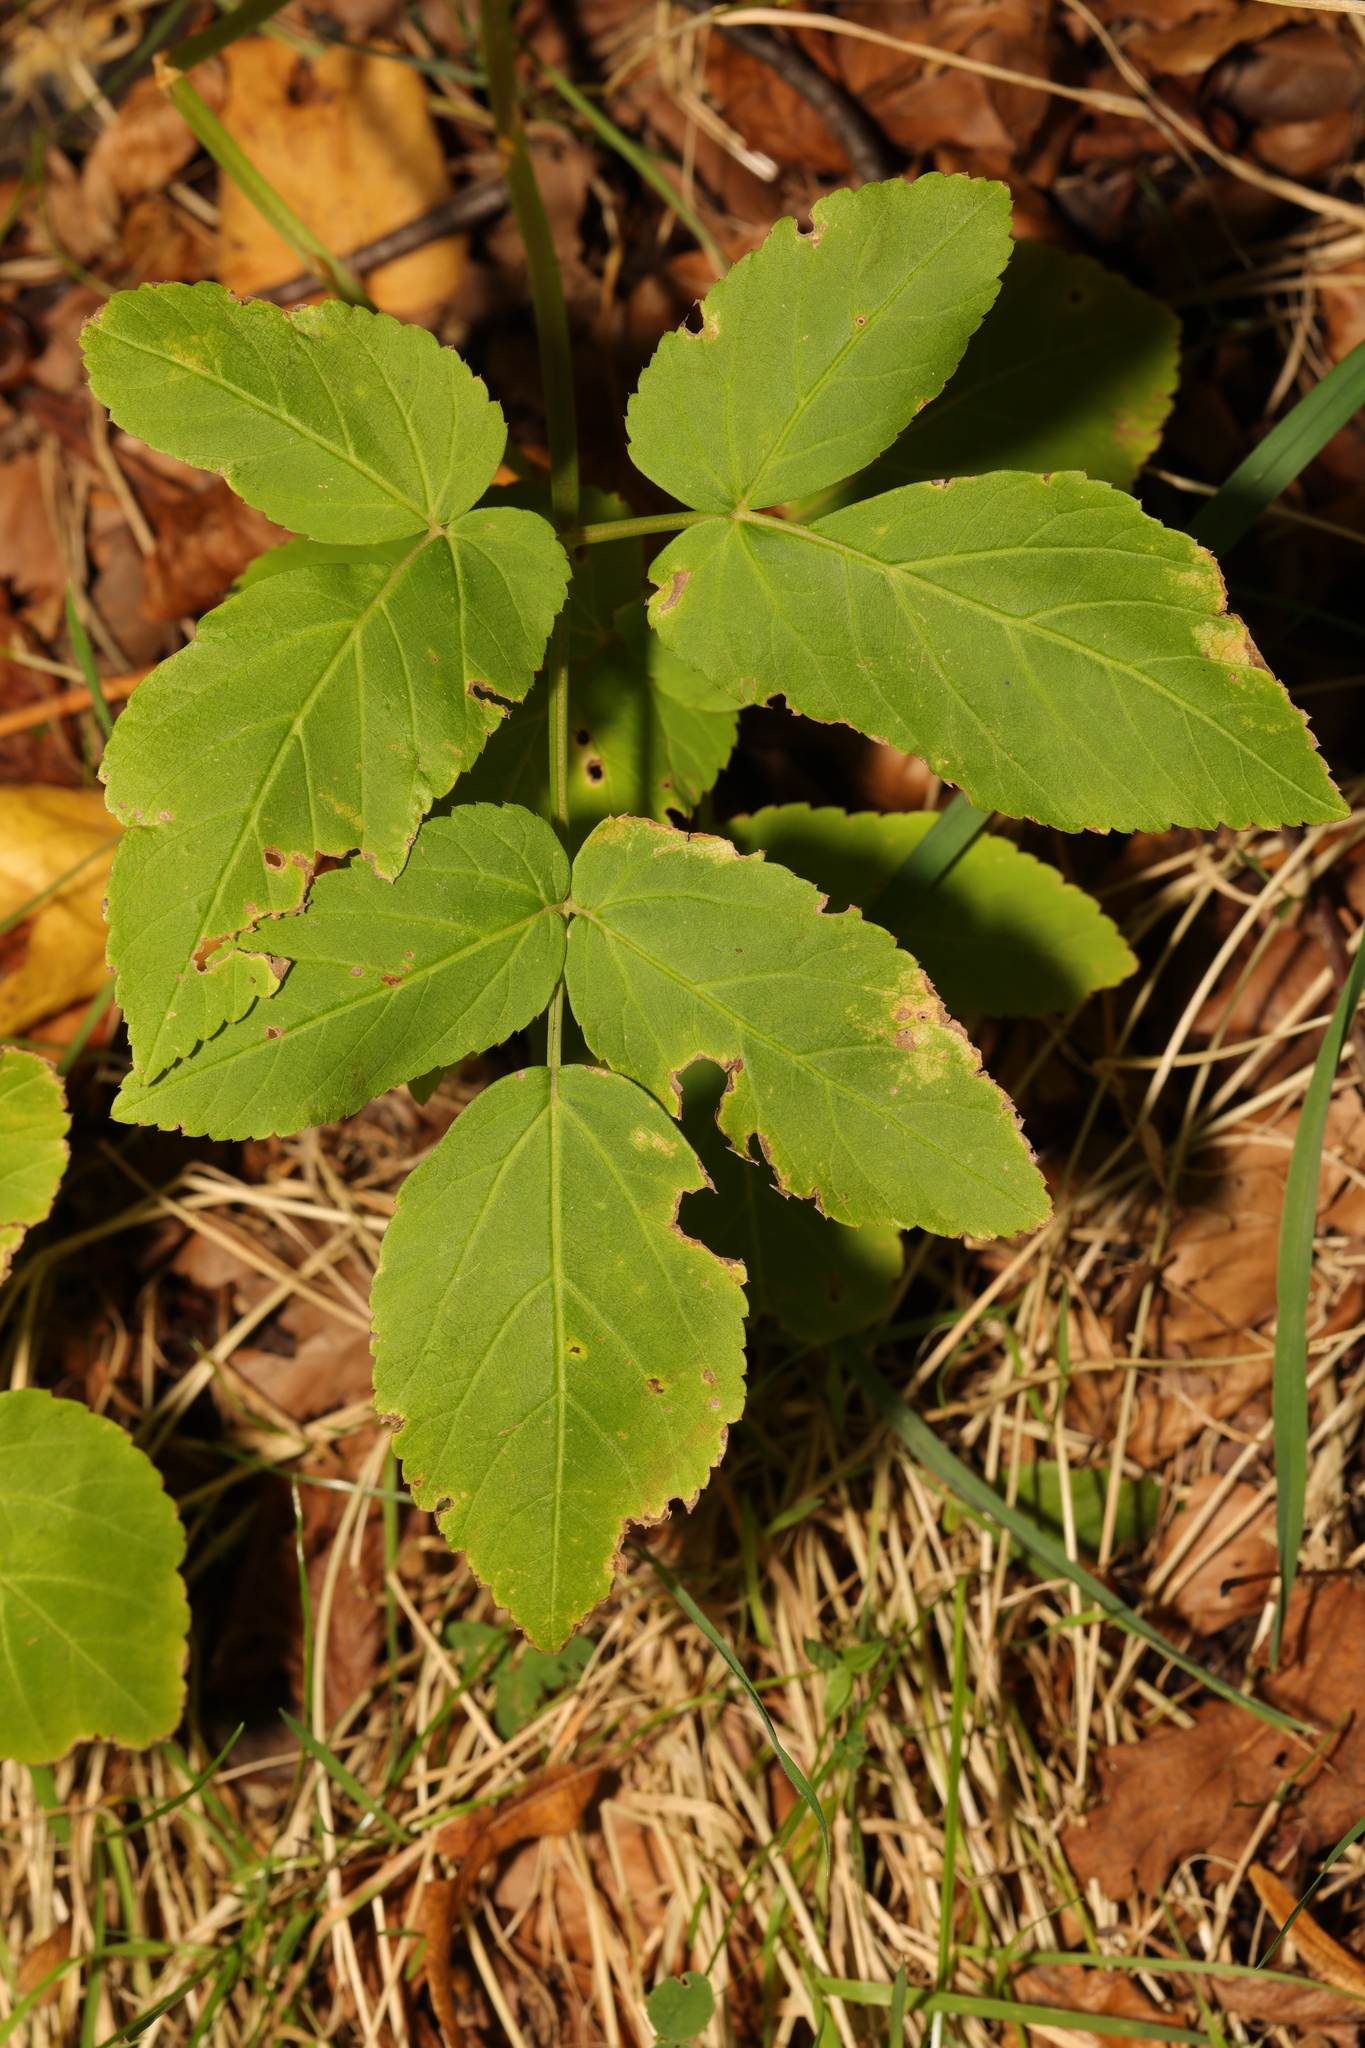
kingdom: Plantae
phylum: Tracheophyta
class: Magnoliopsida
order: Apiales
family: Apiaceae
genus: Aegopodium
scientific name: Aegopodium podagraria
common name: Ground-elder
